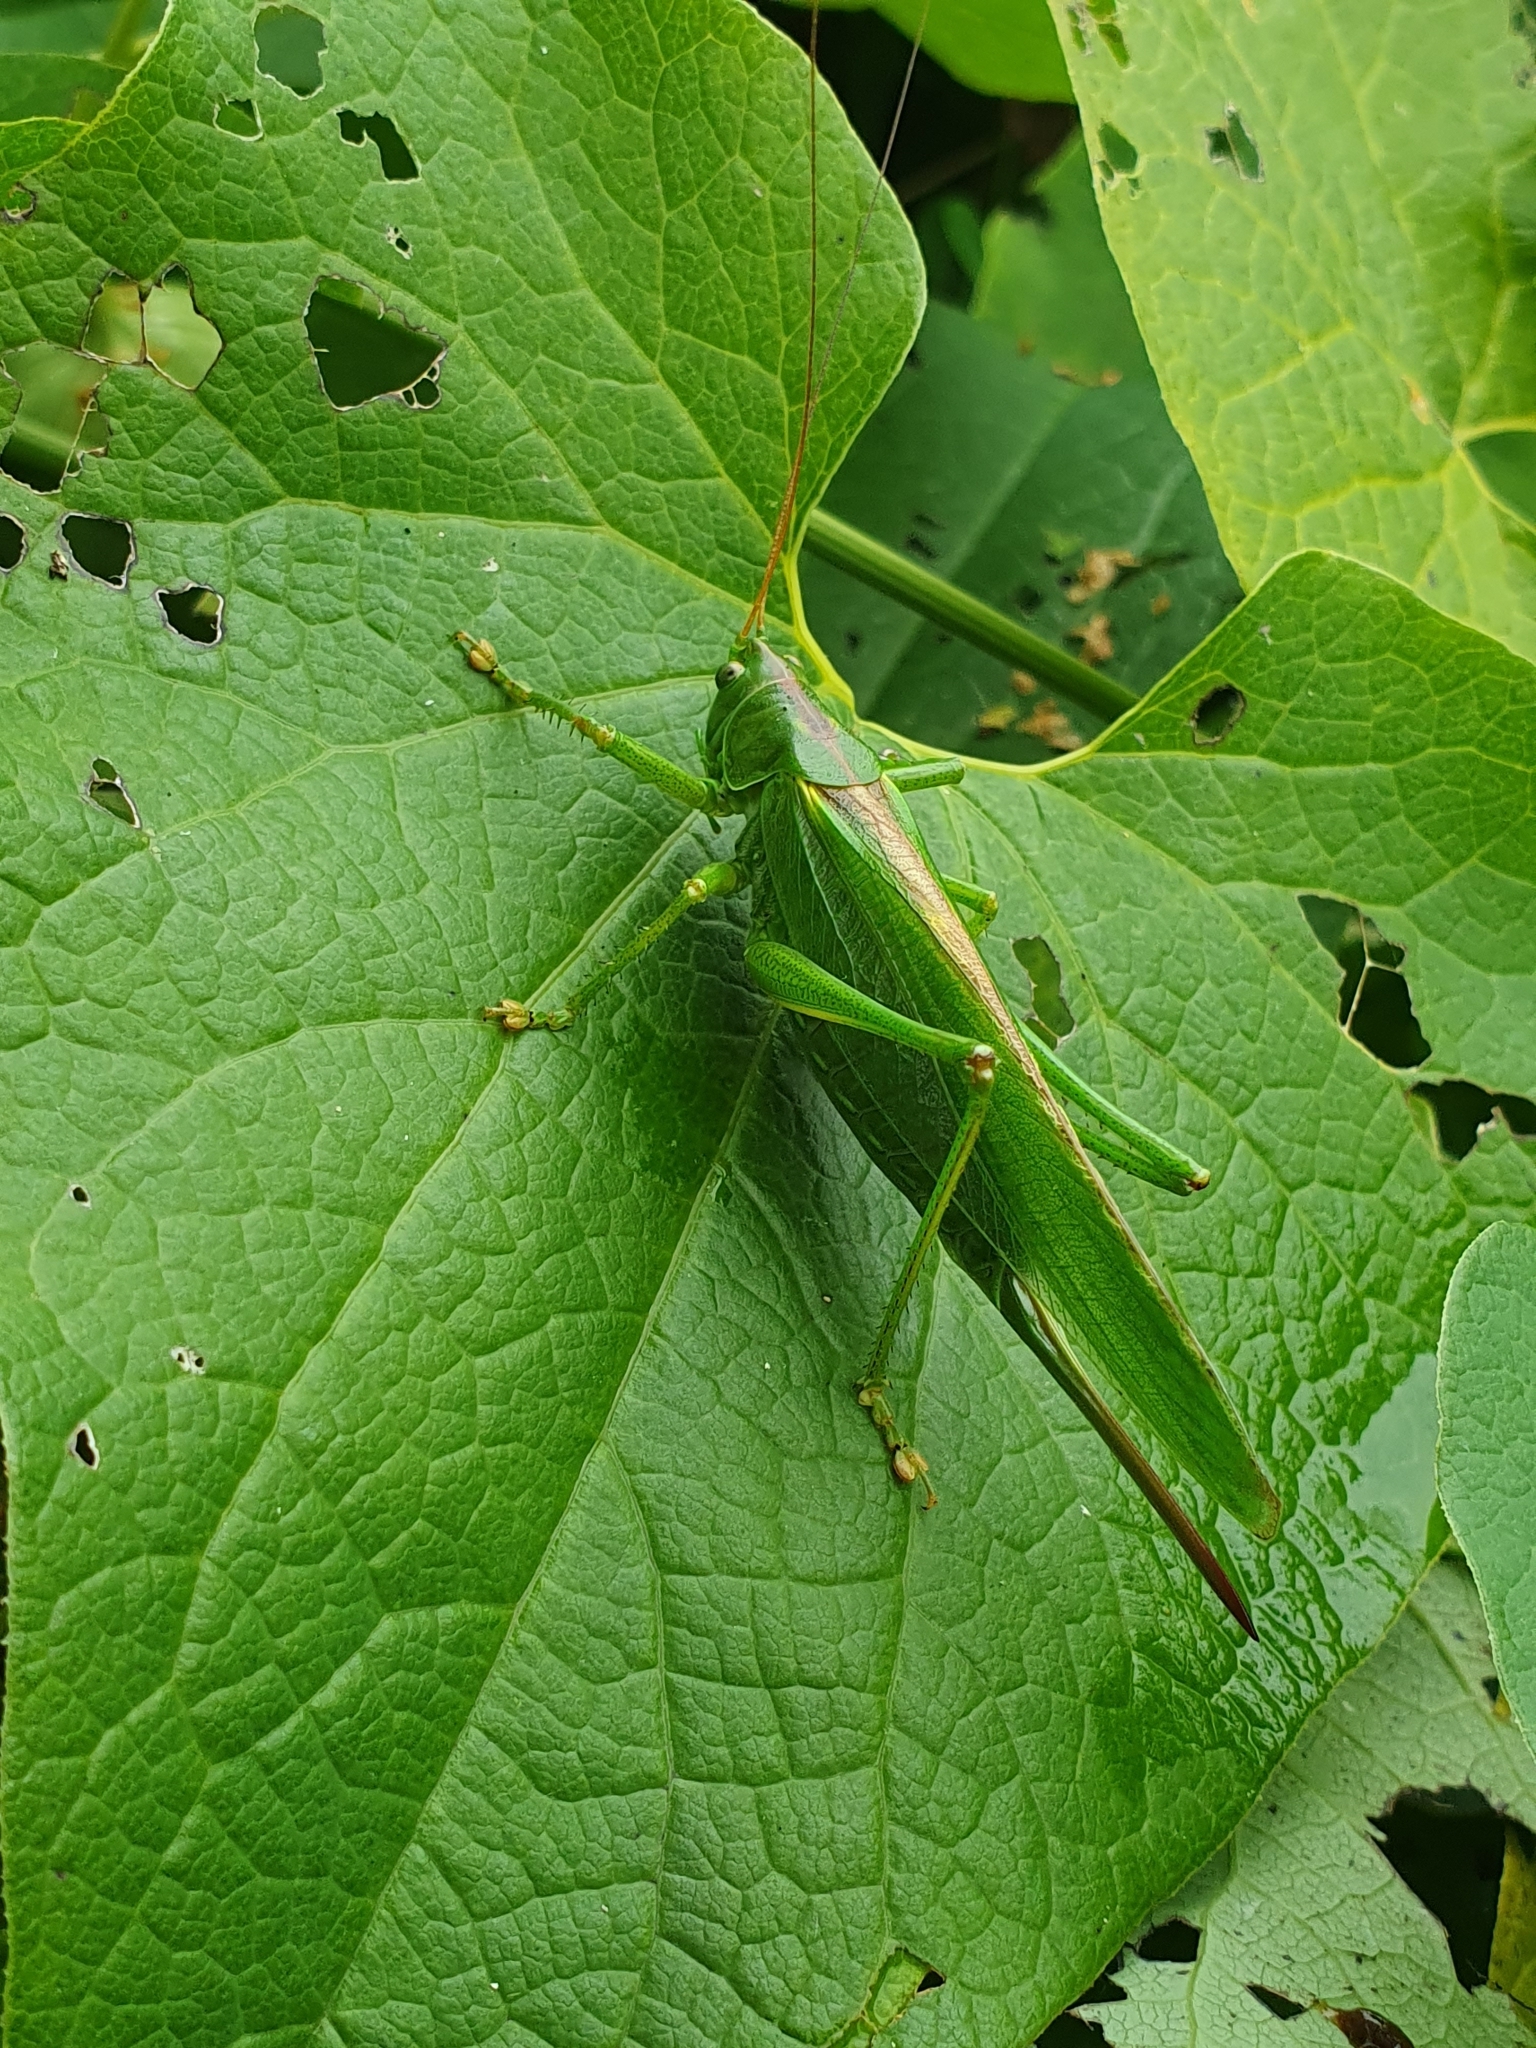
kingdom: Animalia
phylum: Arthropoda
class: Insecta
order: Orthoptera
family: Tettigoniidae
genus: Tettigonia
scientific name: Tettigonia viridissima
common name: Great green bush-cricket
